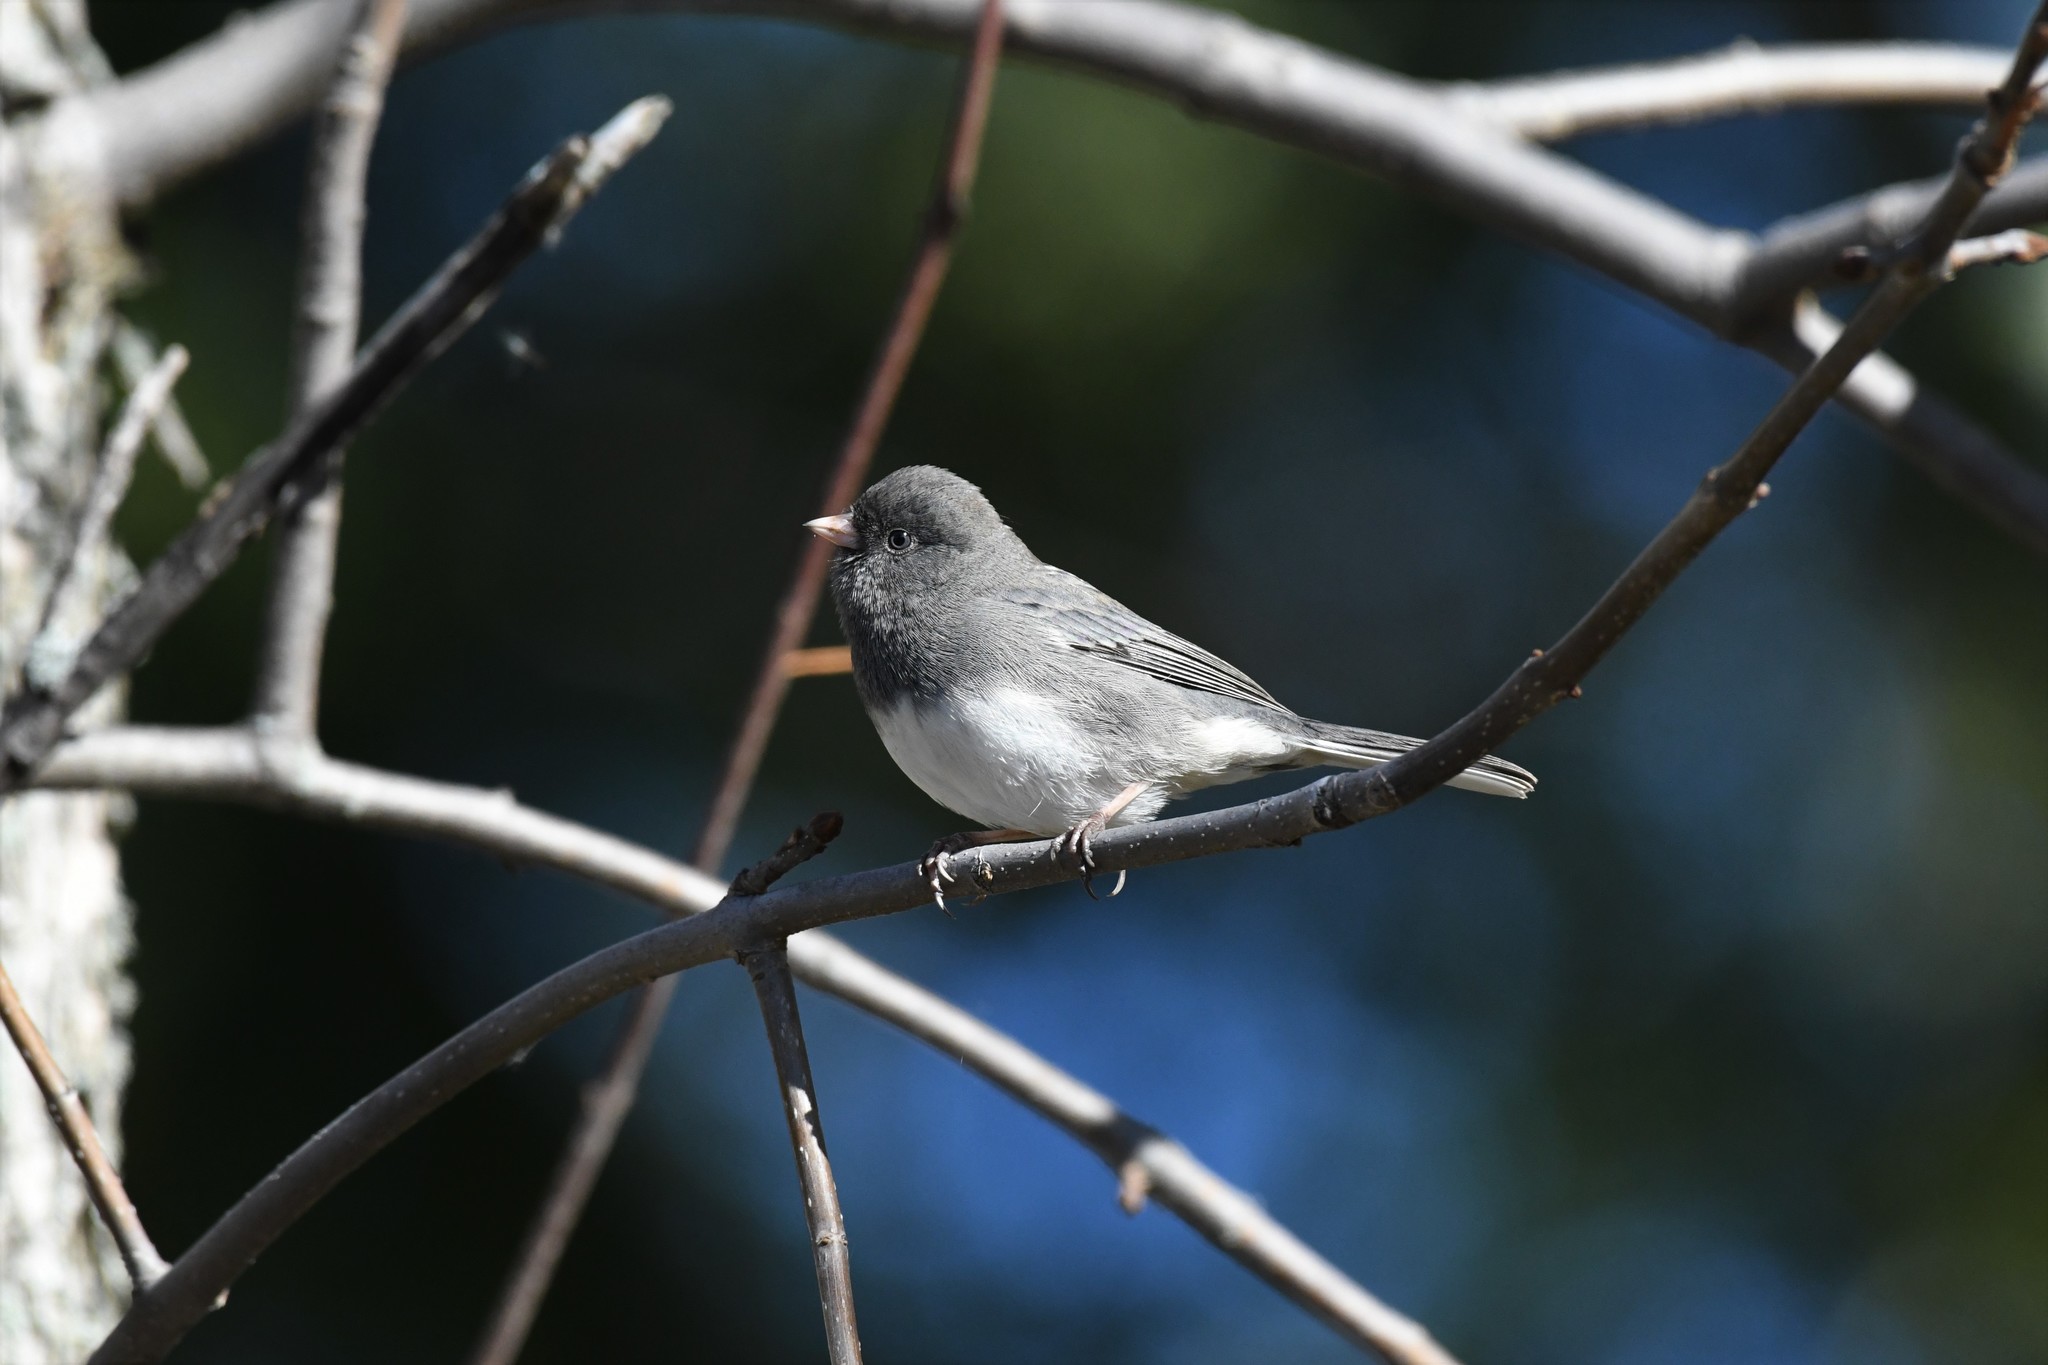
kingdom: Animalia
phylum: Chordata
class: Aves
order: Passeriformes
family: Passerellidae
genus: Junco
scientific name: Junco hyemalis
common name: Dark-eyed junco
